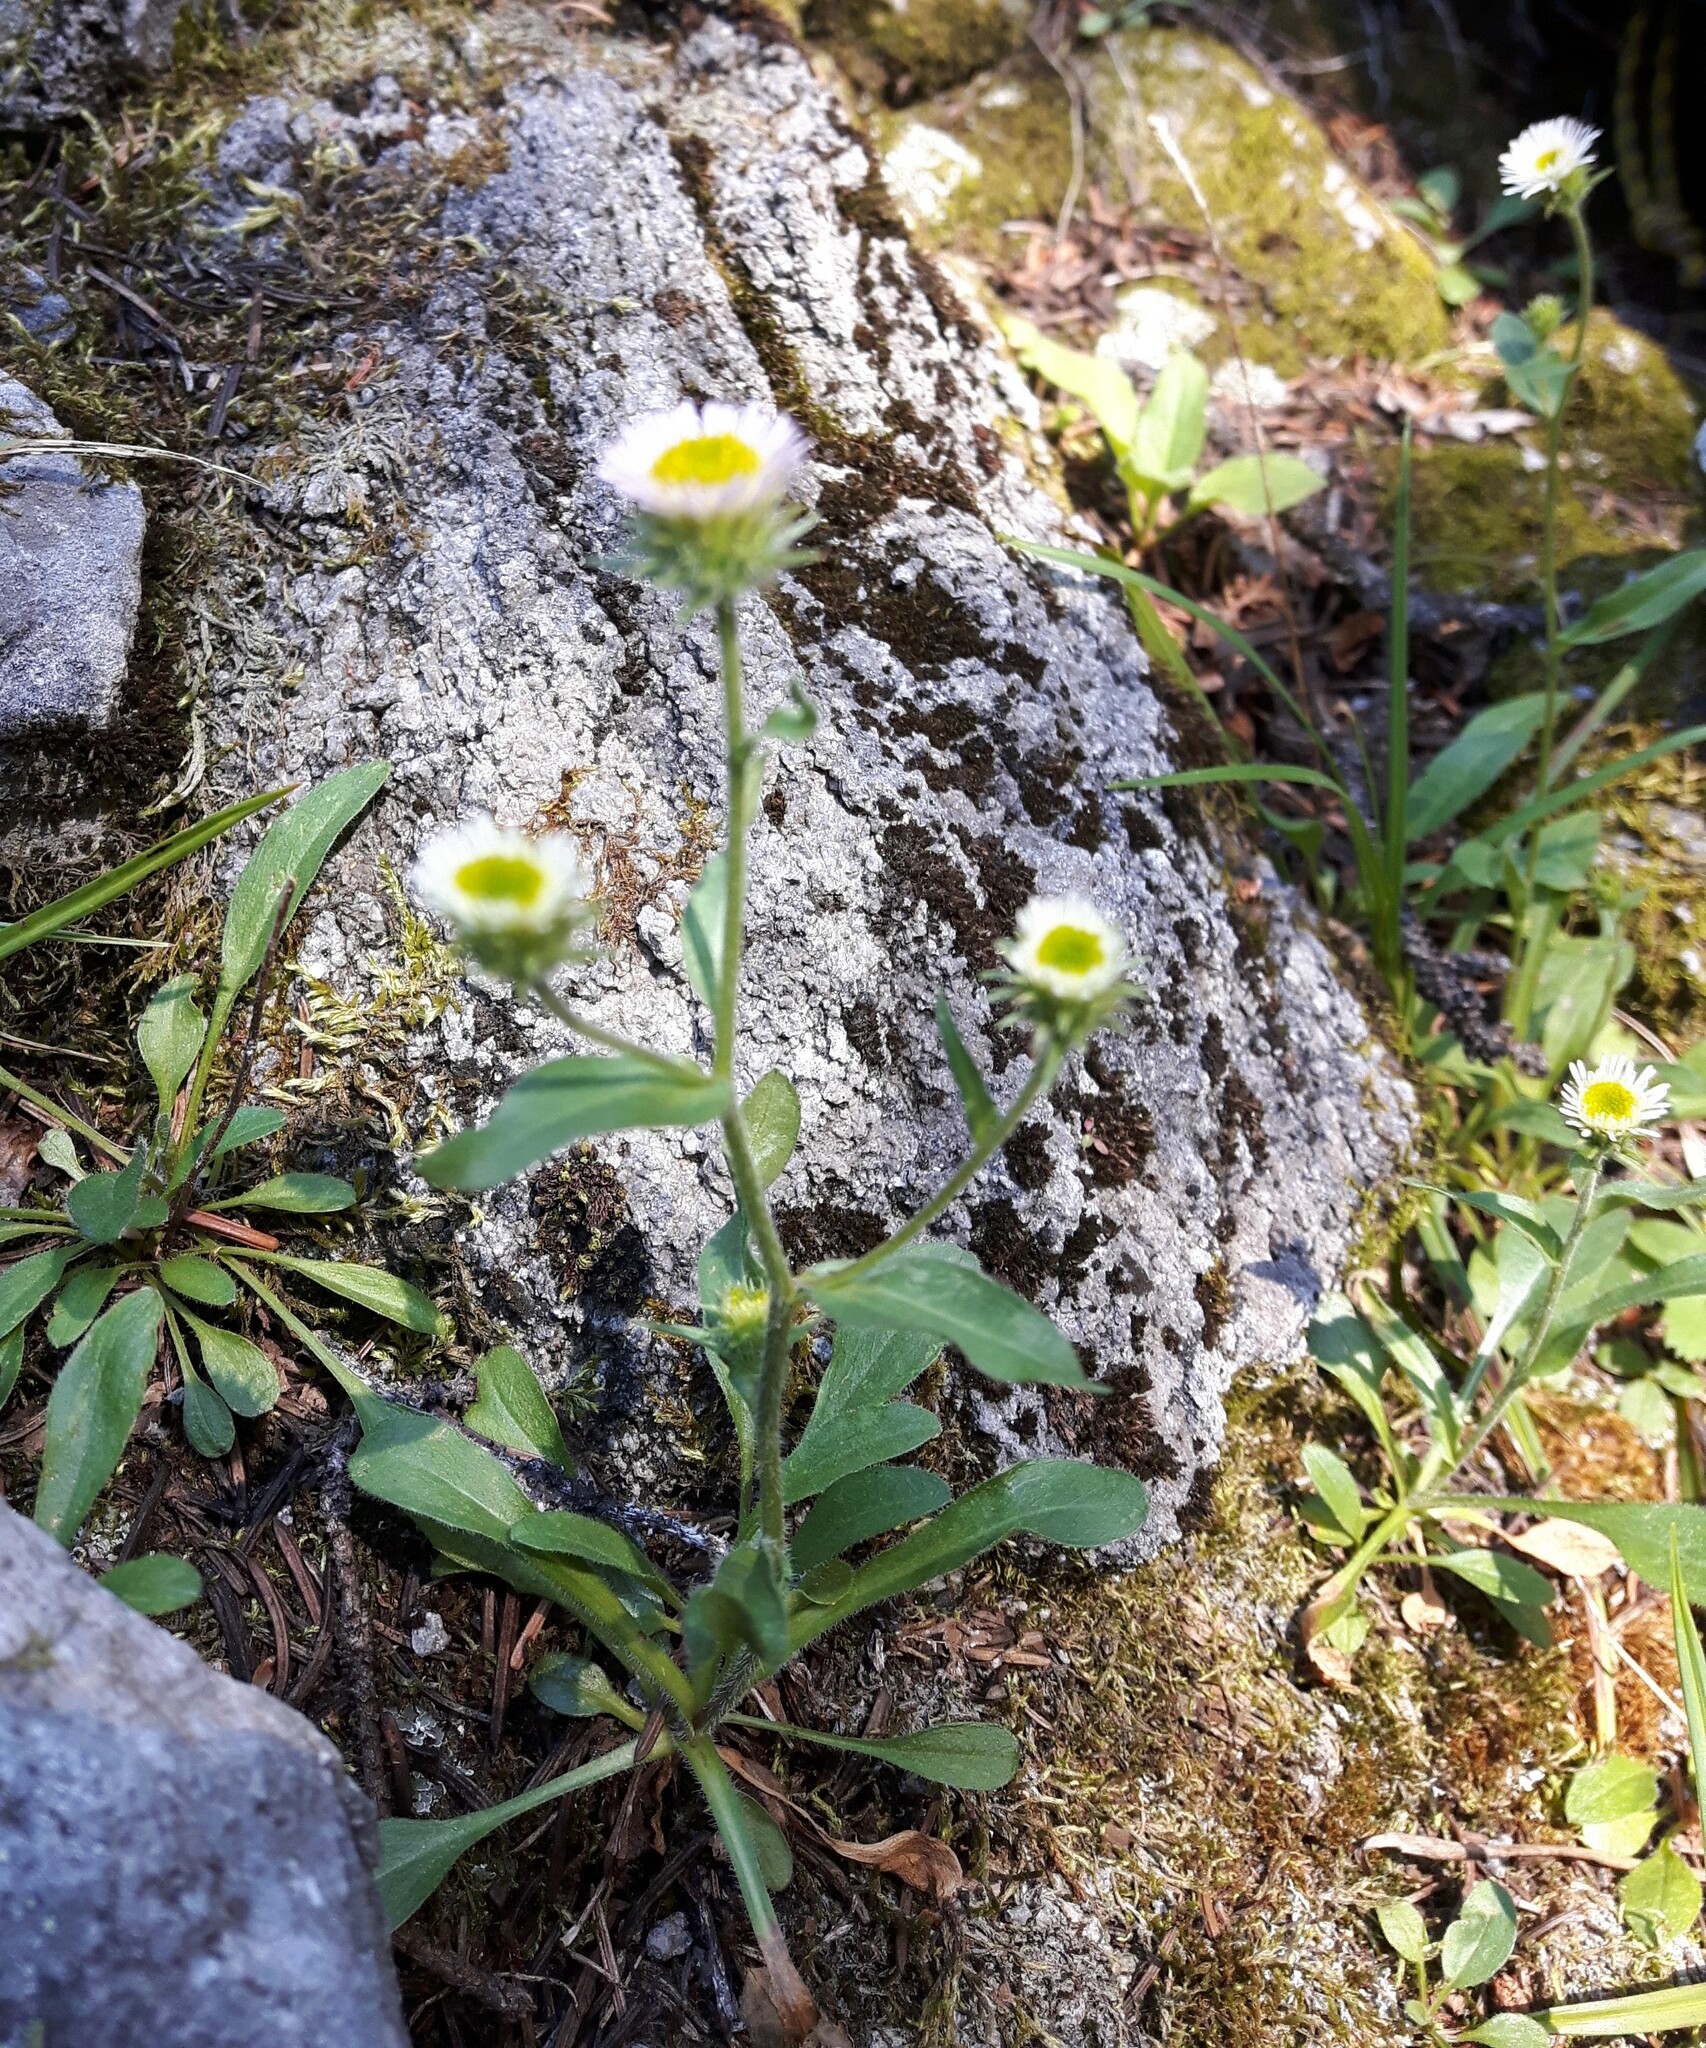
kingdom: Plantae
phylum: Tracheophyta
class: Magnoliopsida
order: Asterales
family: Asteraceae
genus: Erigeron
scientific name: Erigeron nivalis
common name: Snow fleabane
